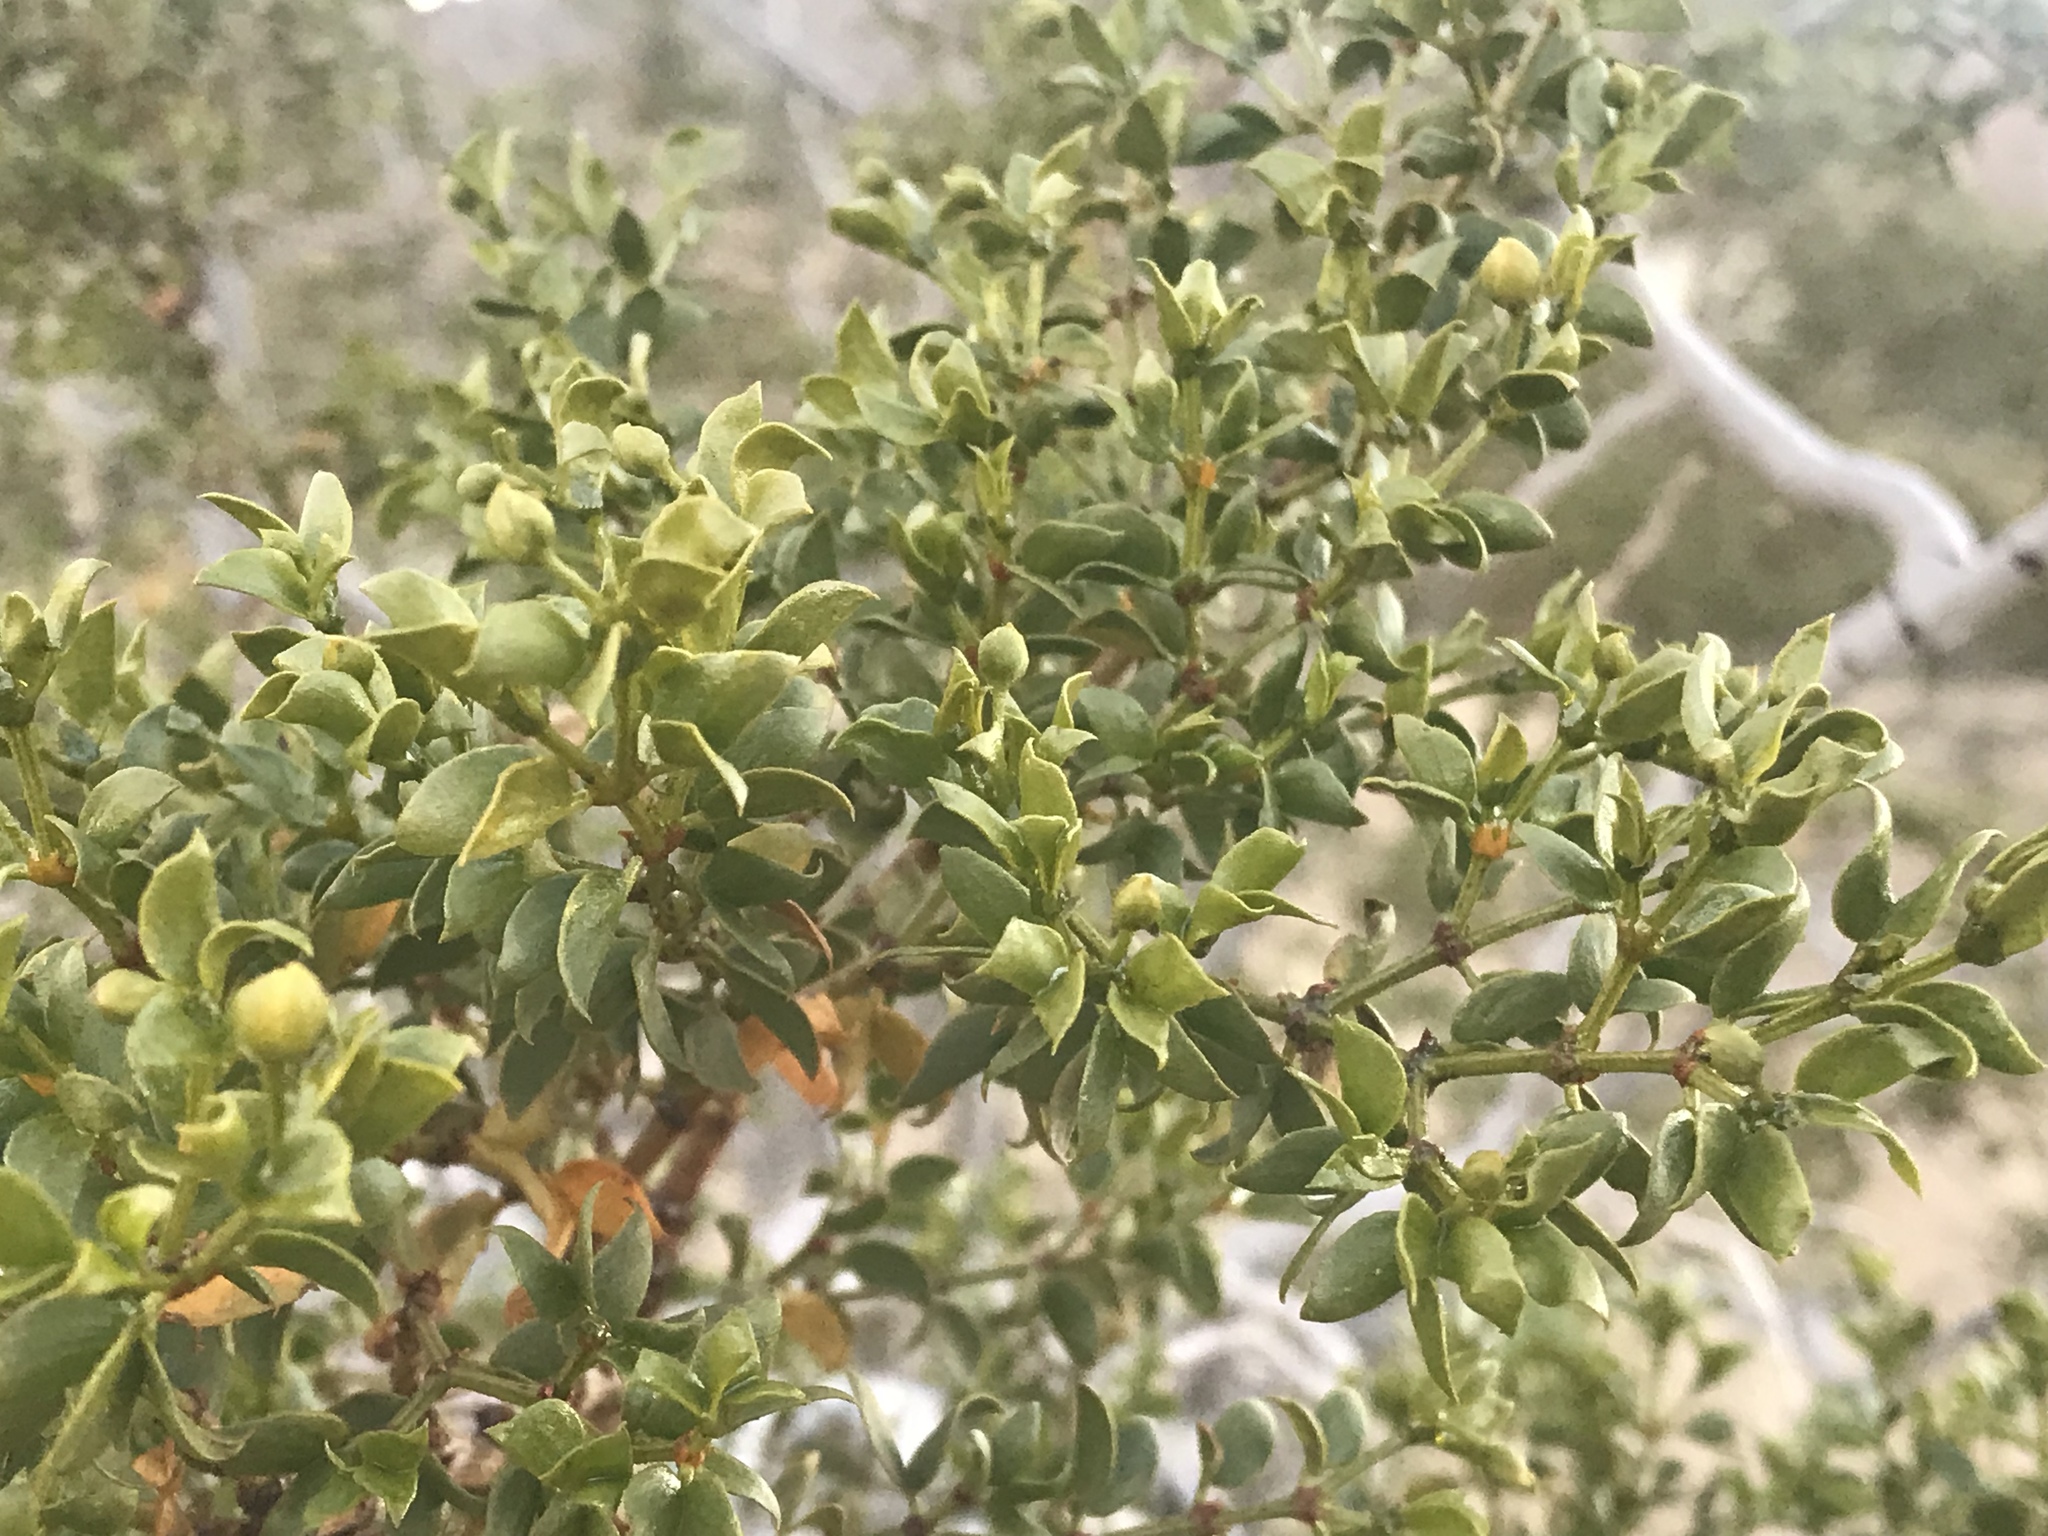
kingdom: Plantae
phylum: Tracheophyta
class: Magnoliopsida
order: Zygophyllales
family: Zygophyllaceae
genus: Larrea
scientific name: Larrea tridentata
